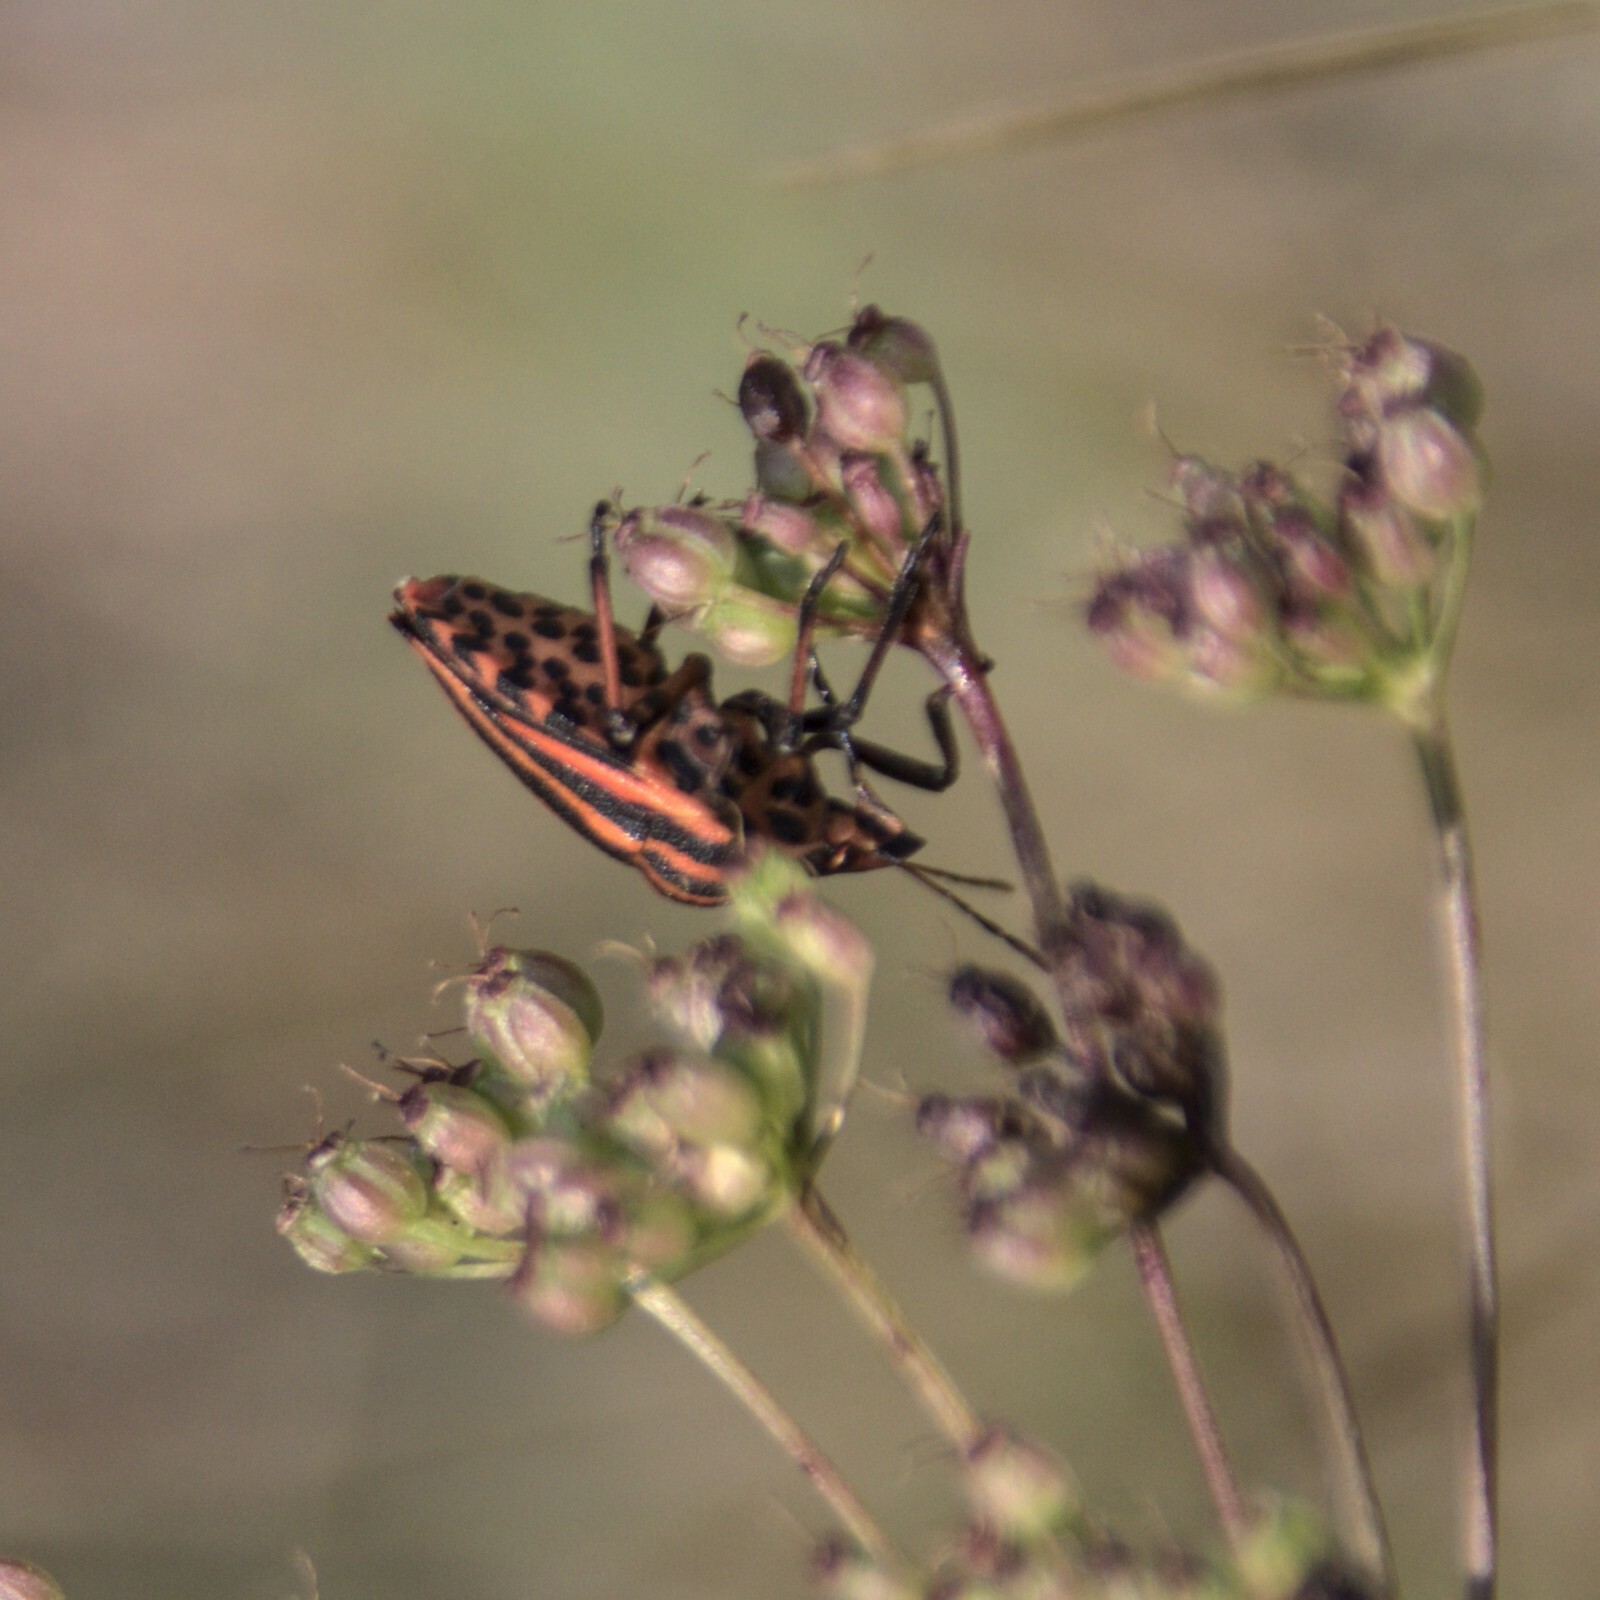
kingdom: Animalia
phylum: Arthropoda
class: Insecta
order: Hemiptera
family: Pentatomidae
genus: Graphosoma
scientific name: Graphosoma italicum
